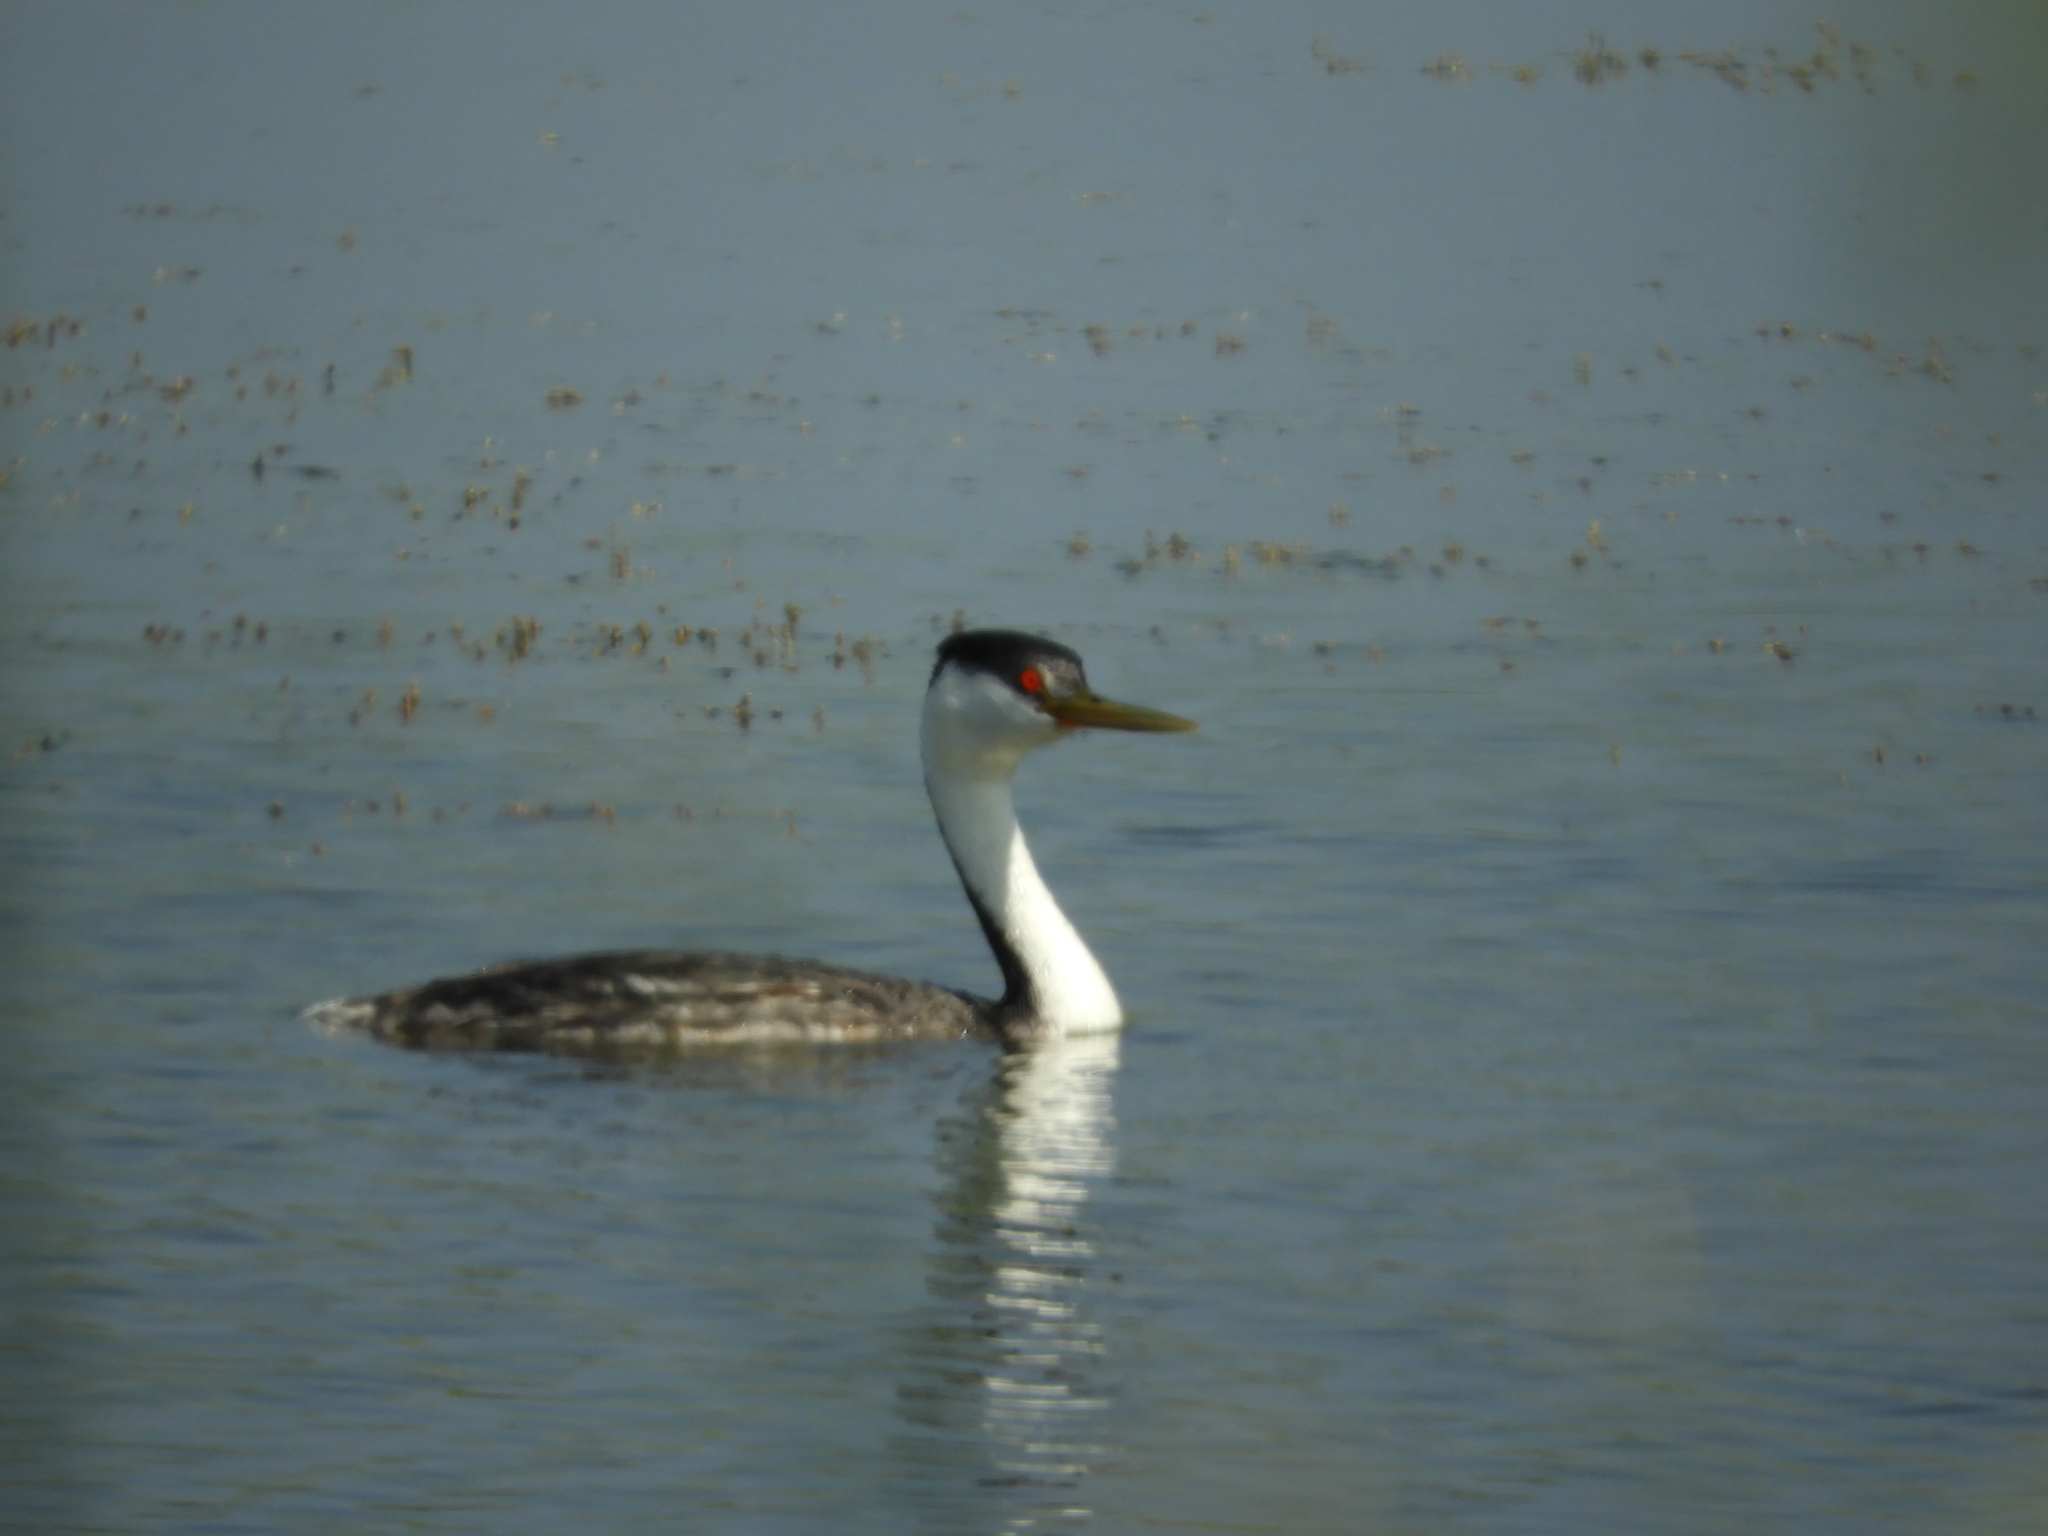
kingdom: Animalia
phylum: Chordata
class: Aves
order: Podicipediformes
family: Podicipedidae
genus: Aechmophorus
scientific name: Aechmophorus occidentalis
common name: Western grebe
